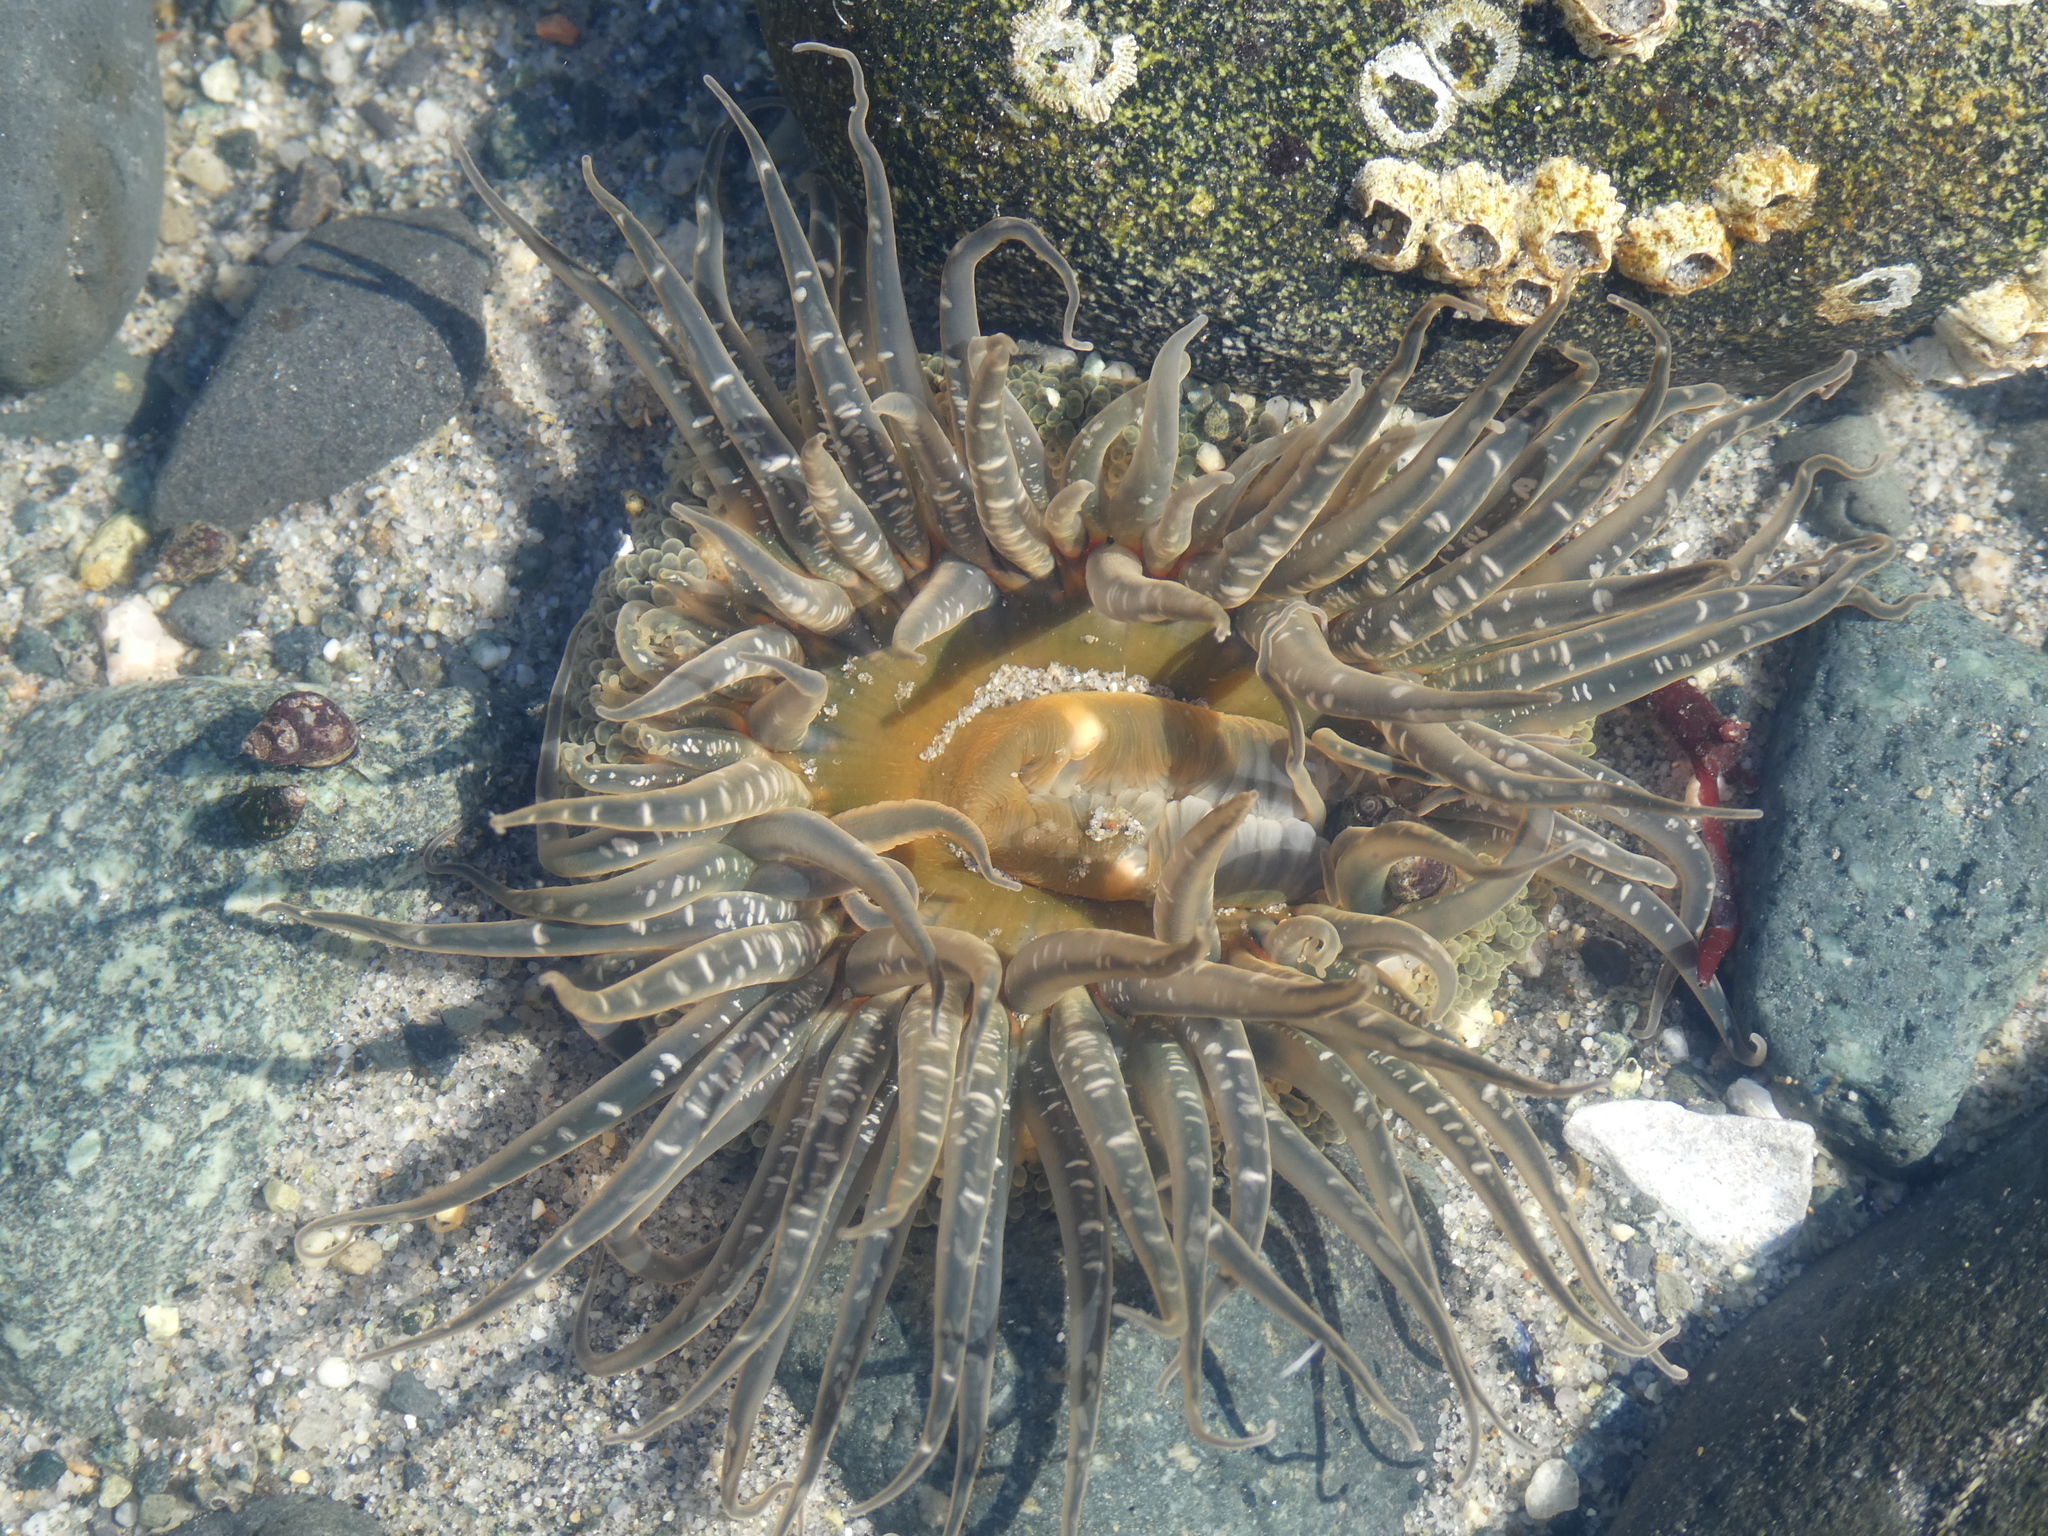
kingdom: Animalia
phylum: Cnidaria
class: Anthozoa
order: Actiniaria
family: Actiniidae
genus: Anthopleura
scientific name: Anthopleura artemisia
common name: Buried sea anemone
